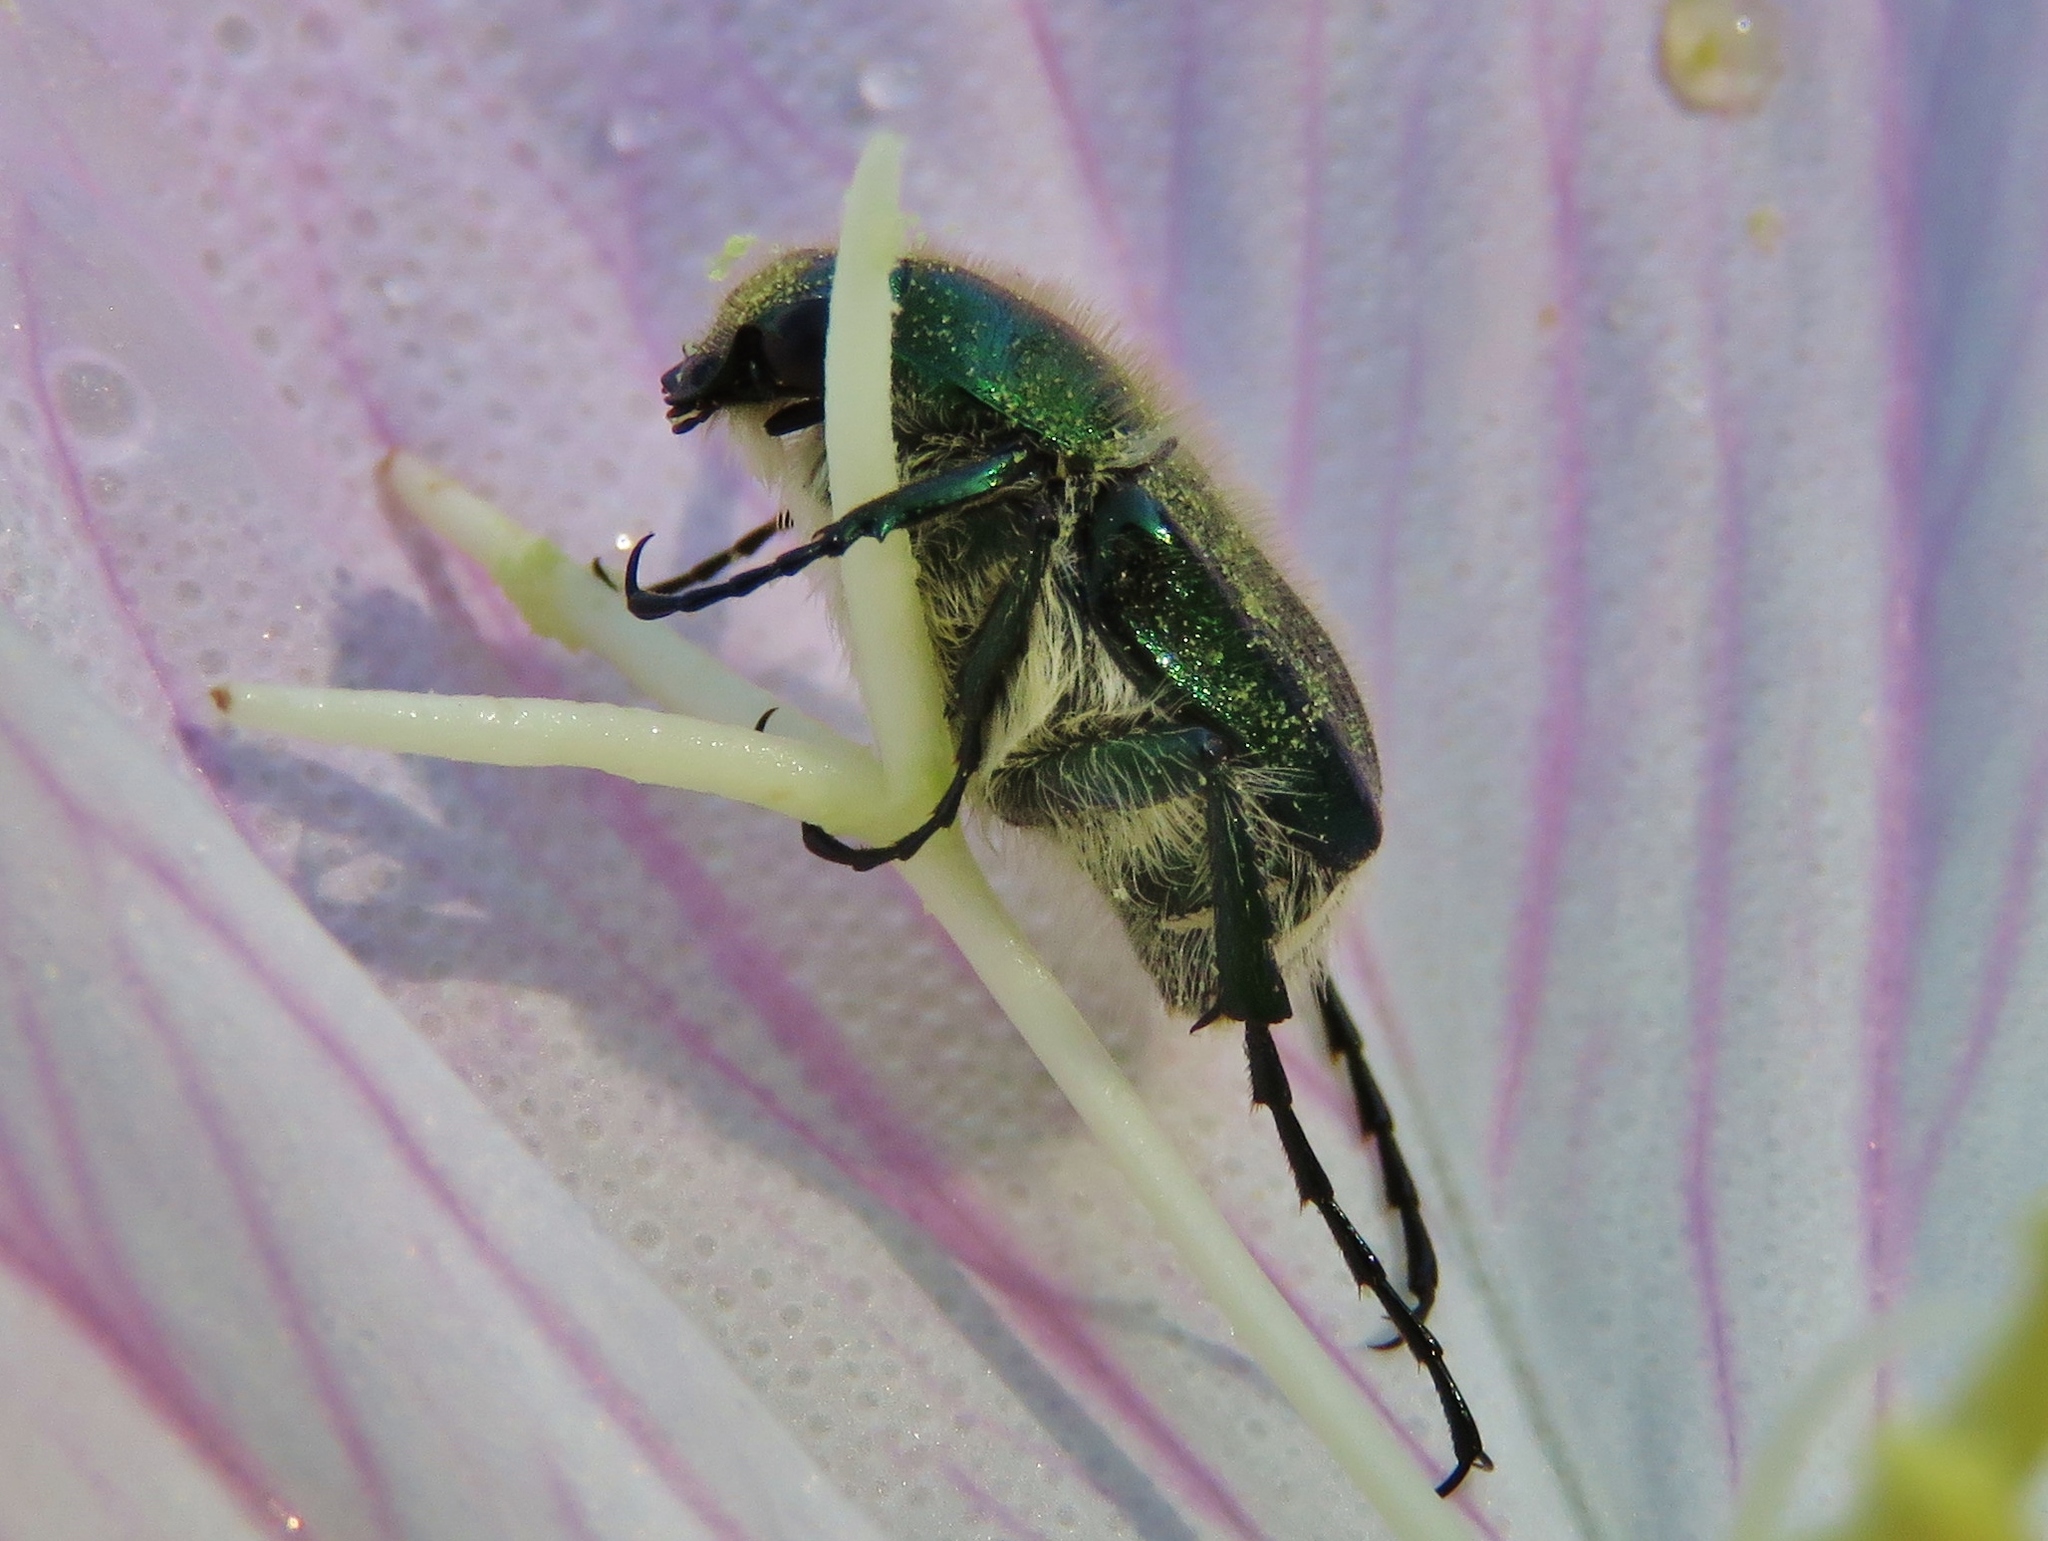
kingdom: Animalia
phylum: Arthropoda
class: Insecta
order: Coleoptera
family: Scarabaeidae
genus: Trichiotinus
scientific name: Trichiotinus lunulatus
